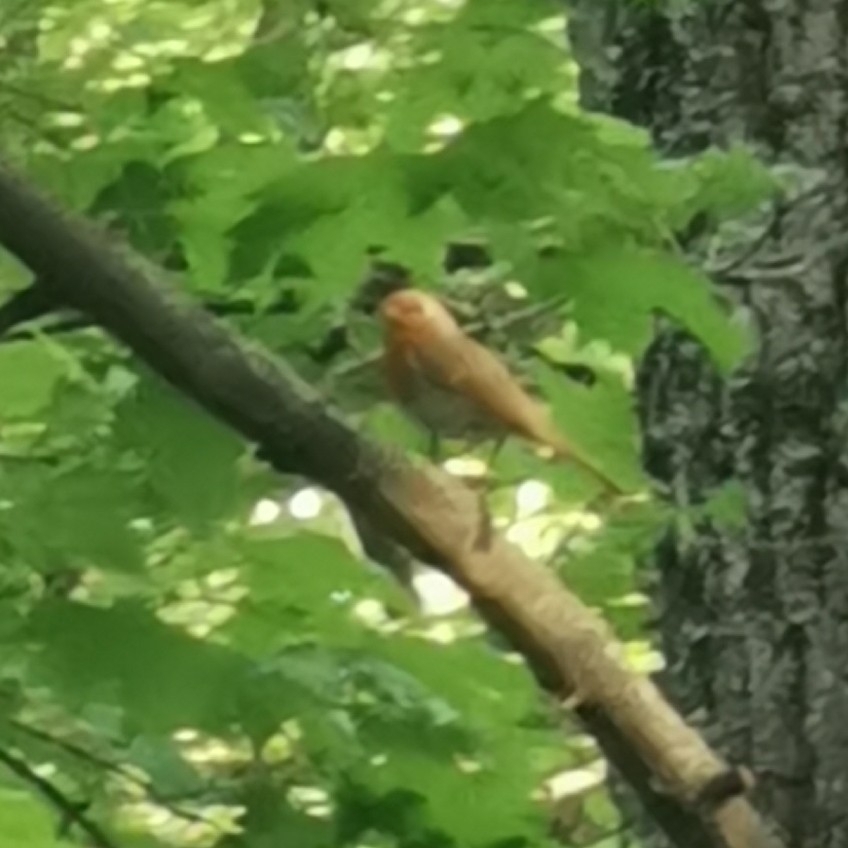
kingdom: Animalia
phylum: Chordata
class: Aves
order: Passeriformes
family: Muscicapidae
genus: Erithacus
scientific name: Erithacus rubecula
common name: European robin
